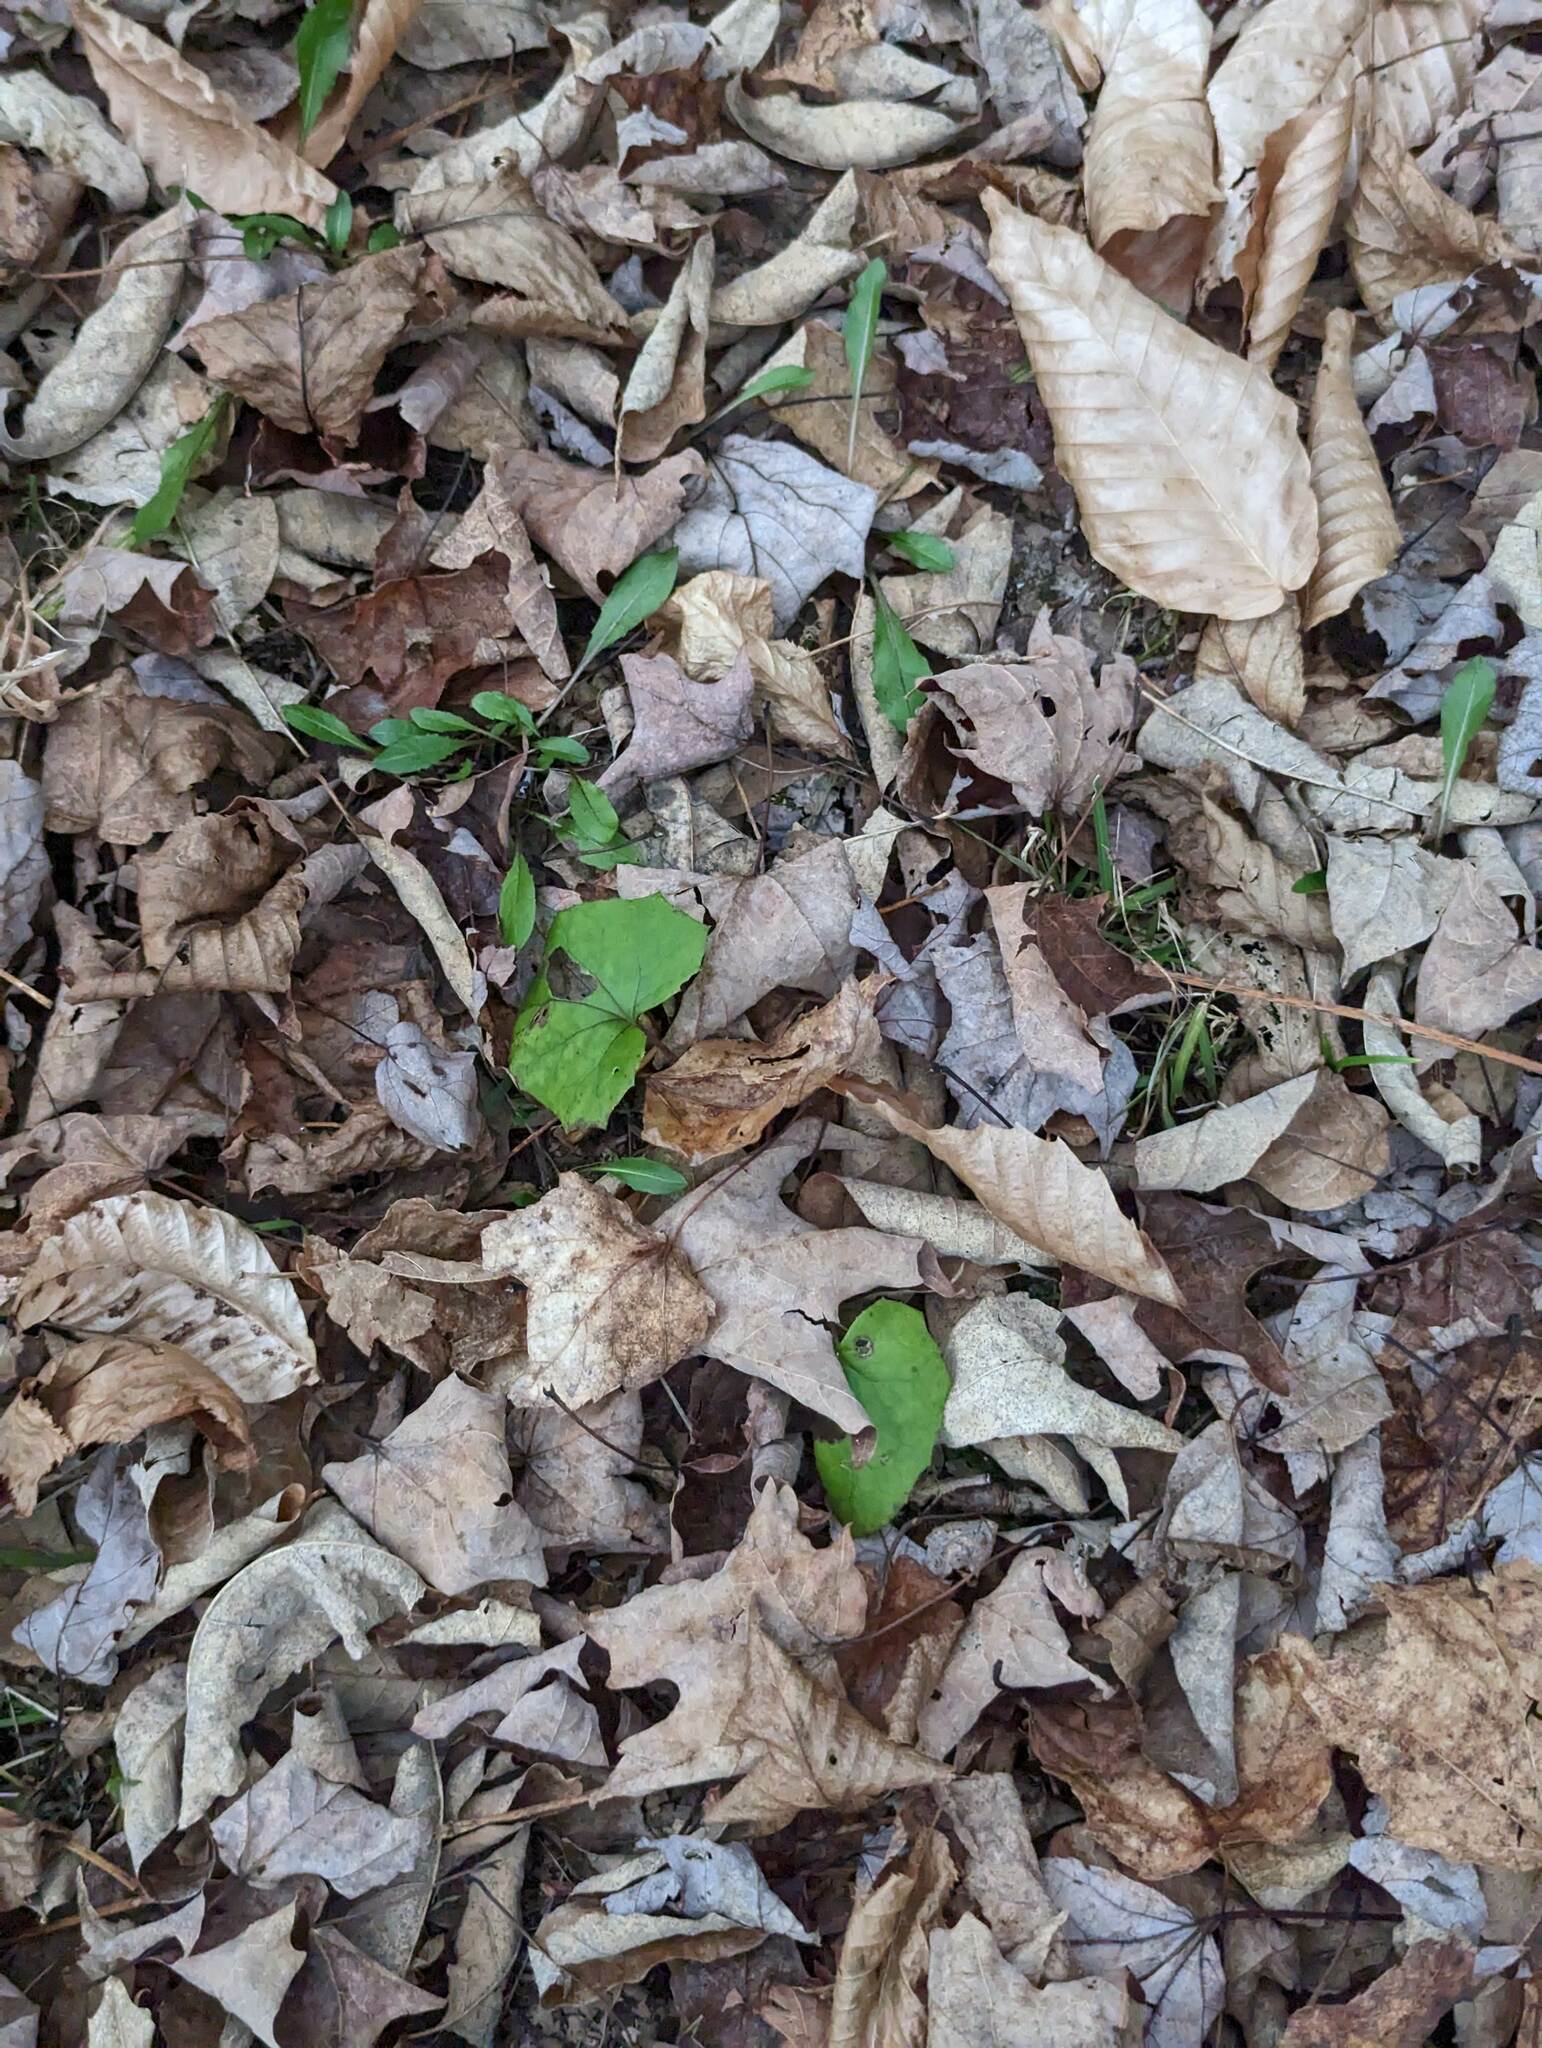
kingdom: Plantae
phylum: Tracheophyta
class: Magnoliopsida
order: Asterales
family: Asteraceae
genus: Tussilago
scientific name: Tussilago farfara
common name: Coltsfoot
